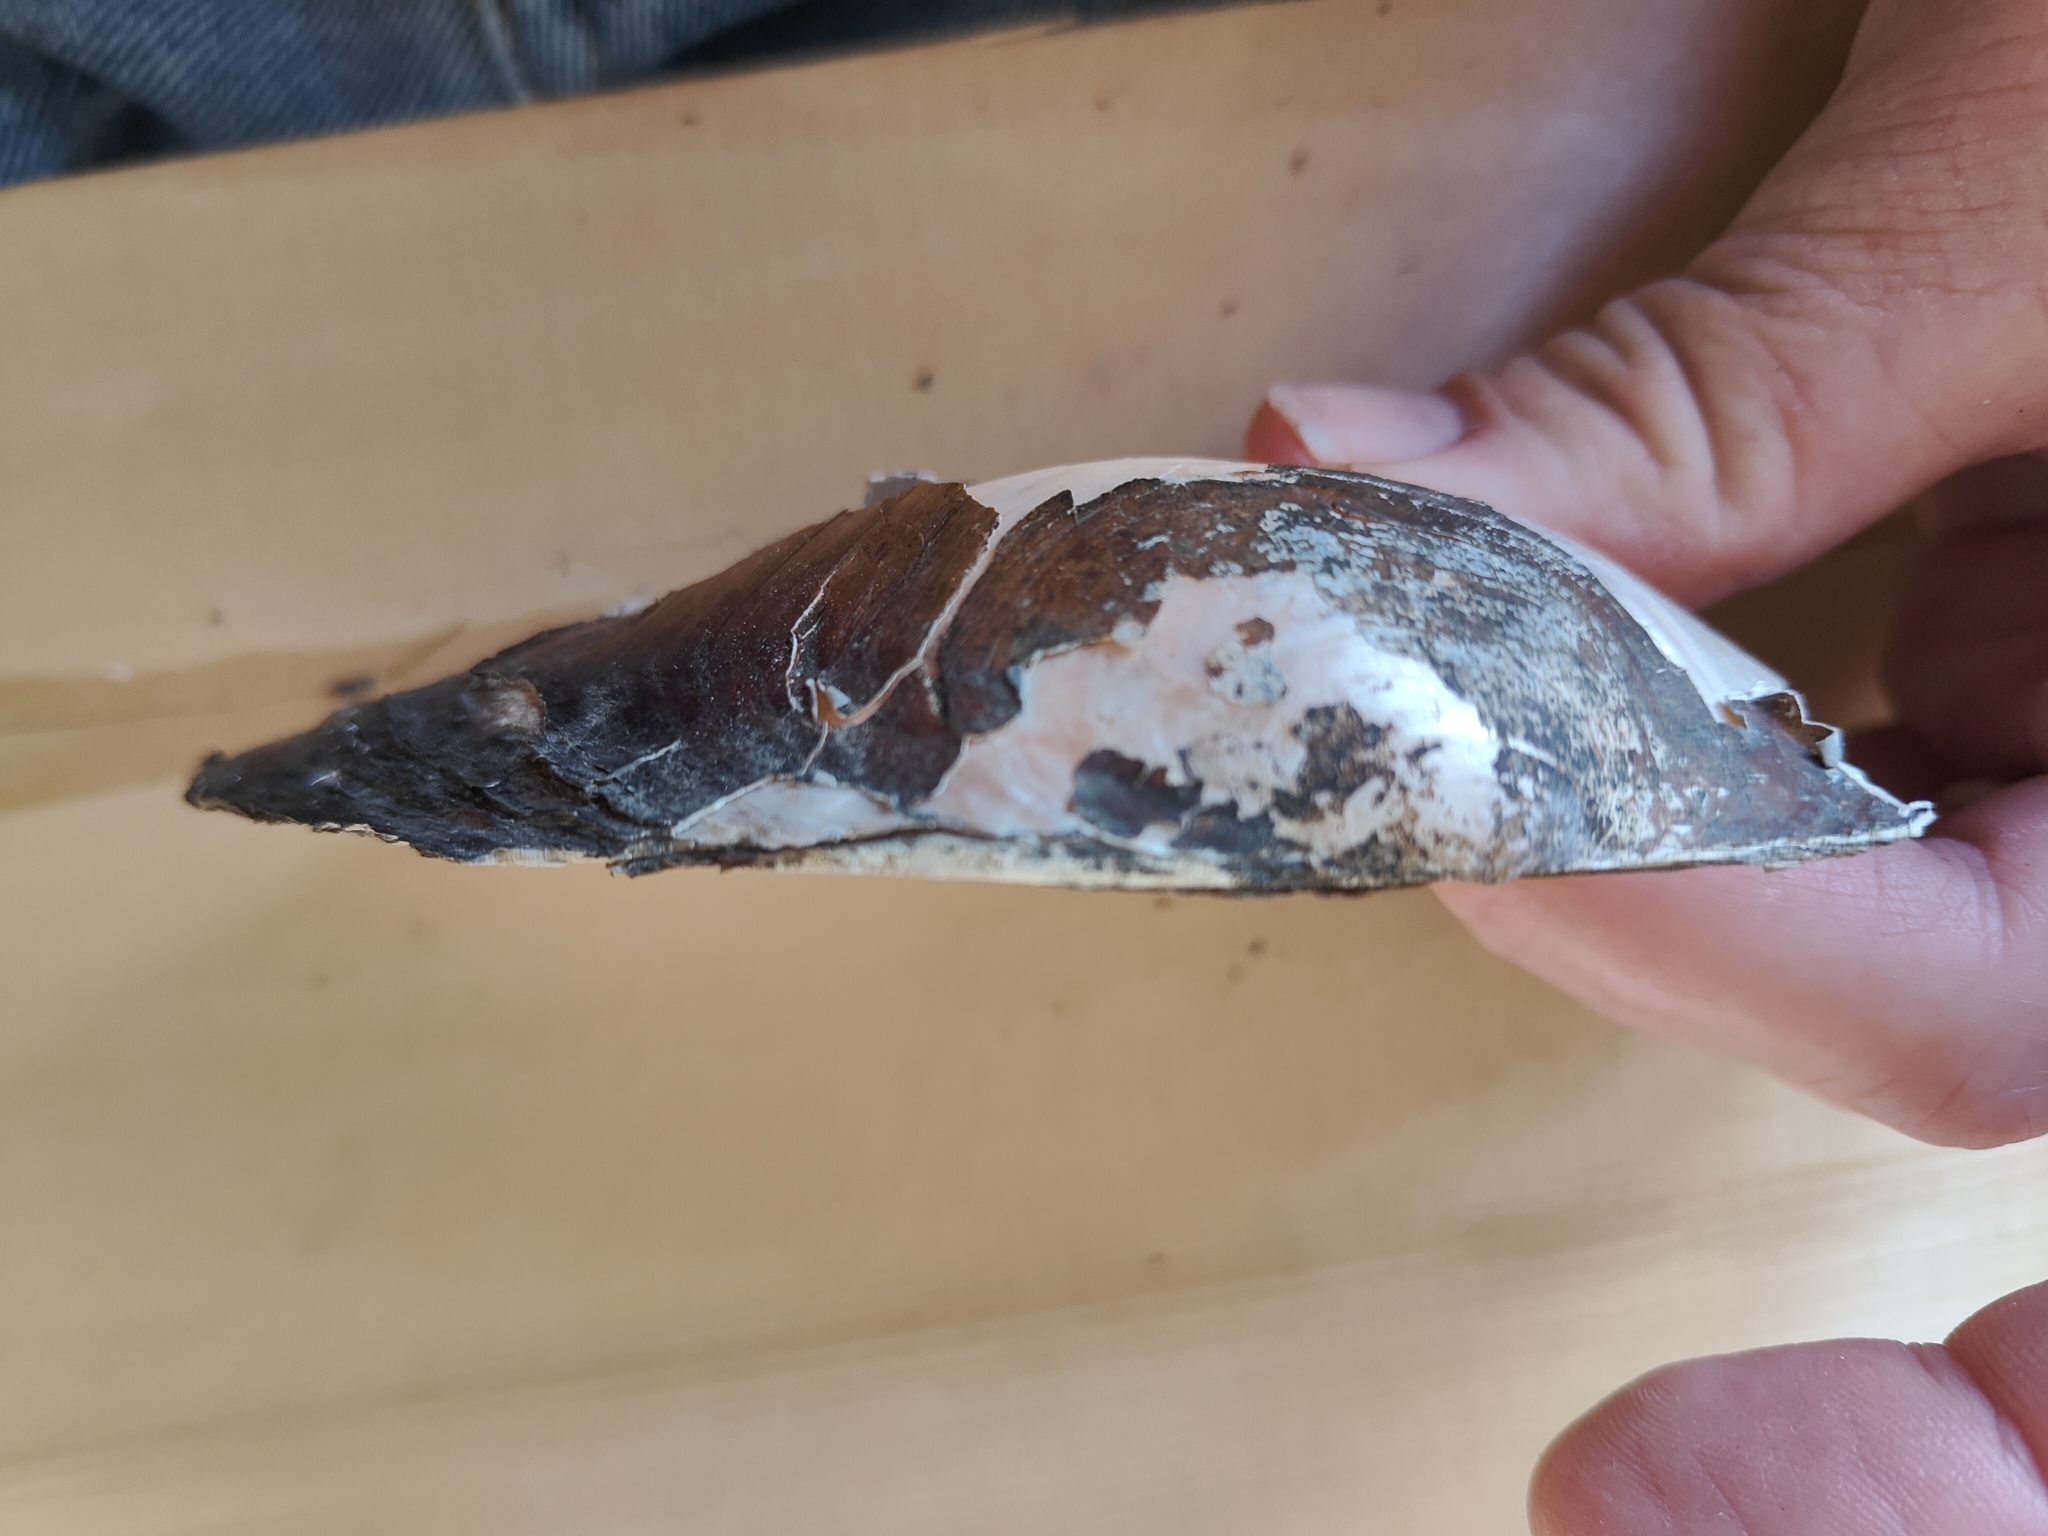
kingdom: Animalia
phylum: Mollusca
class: Bivalvia
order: Unionida
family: Unionidae
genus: Pyganodon
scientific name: Pyganodon grandis
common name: Giant floater
